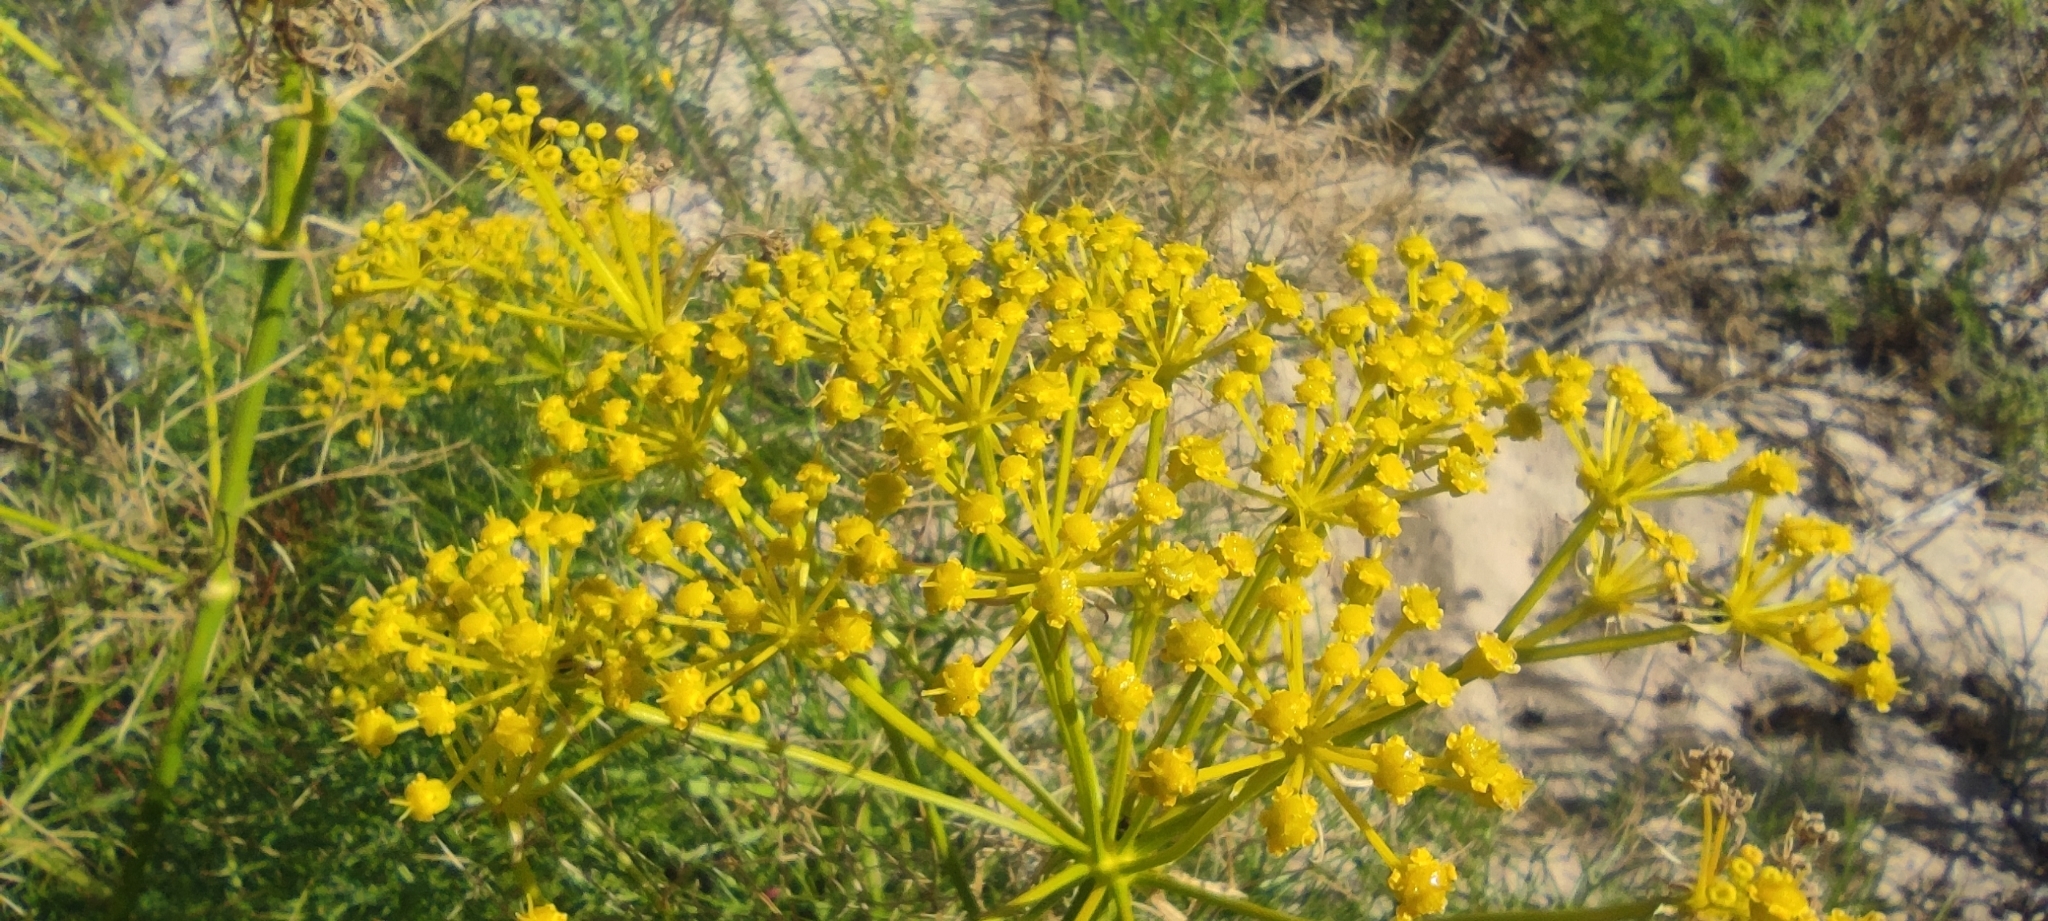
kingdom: Plantae
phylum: Tracheophyta
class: Magnoliopsida
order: Apiales
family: Apiaceae
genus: Cachrys
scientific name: Cachrys libanotis
